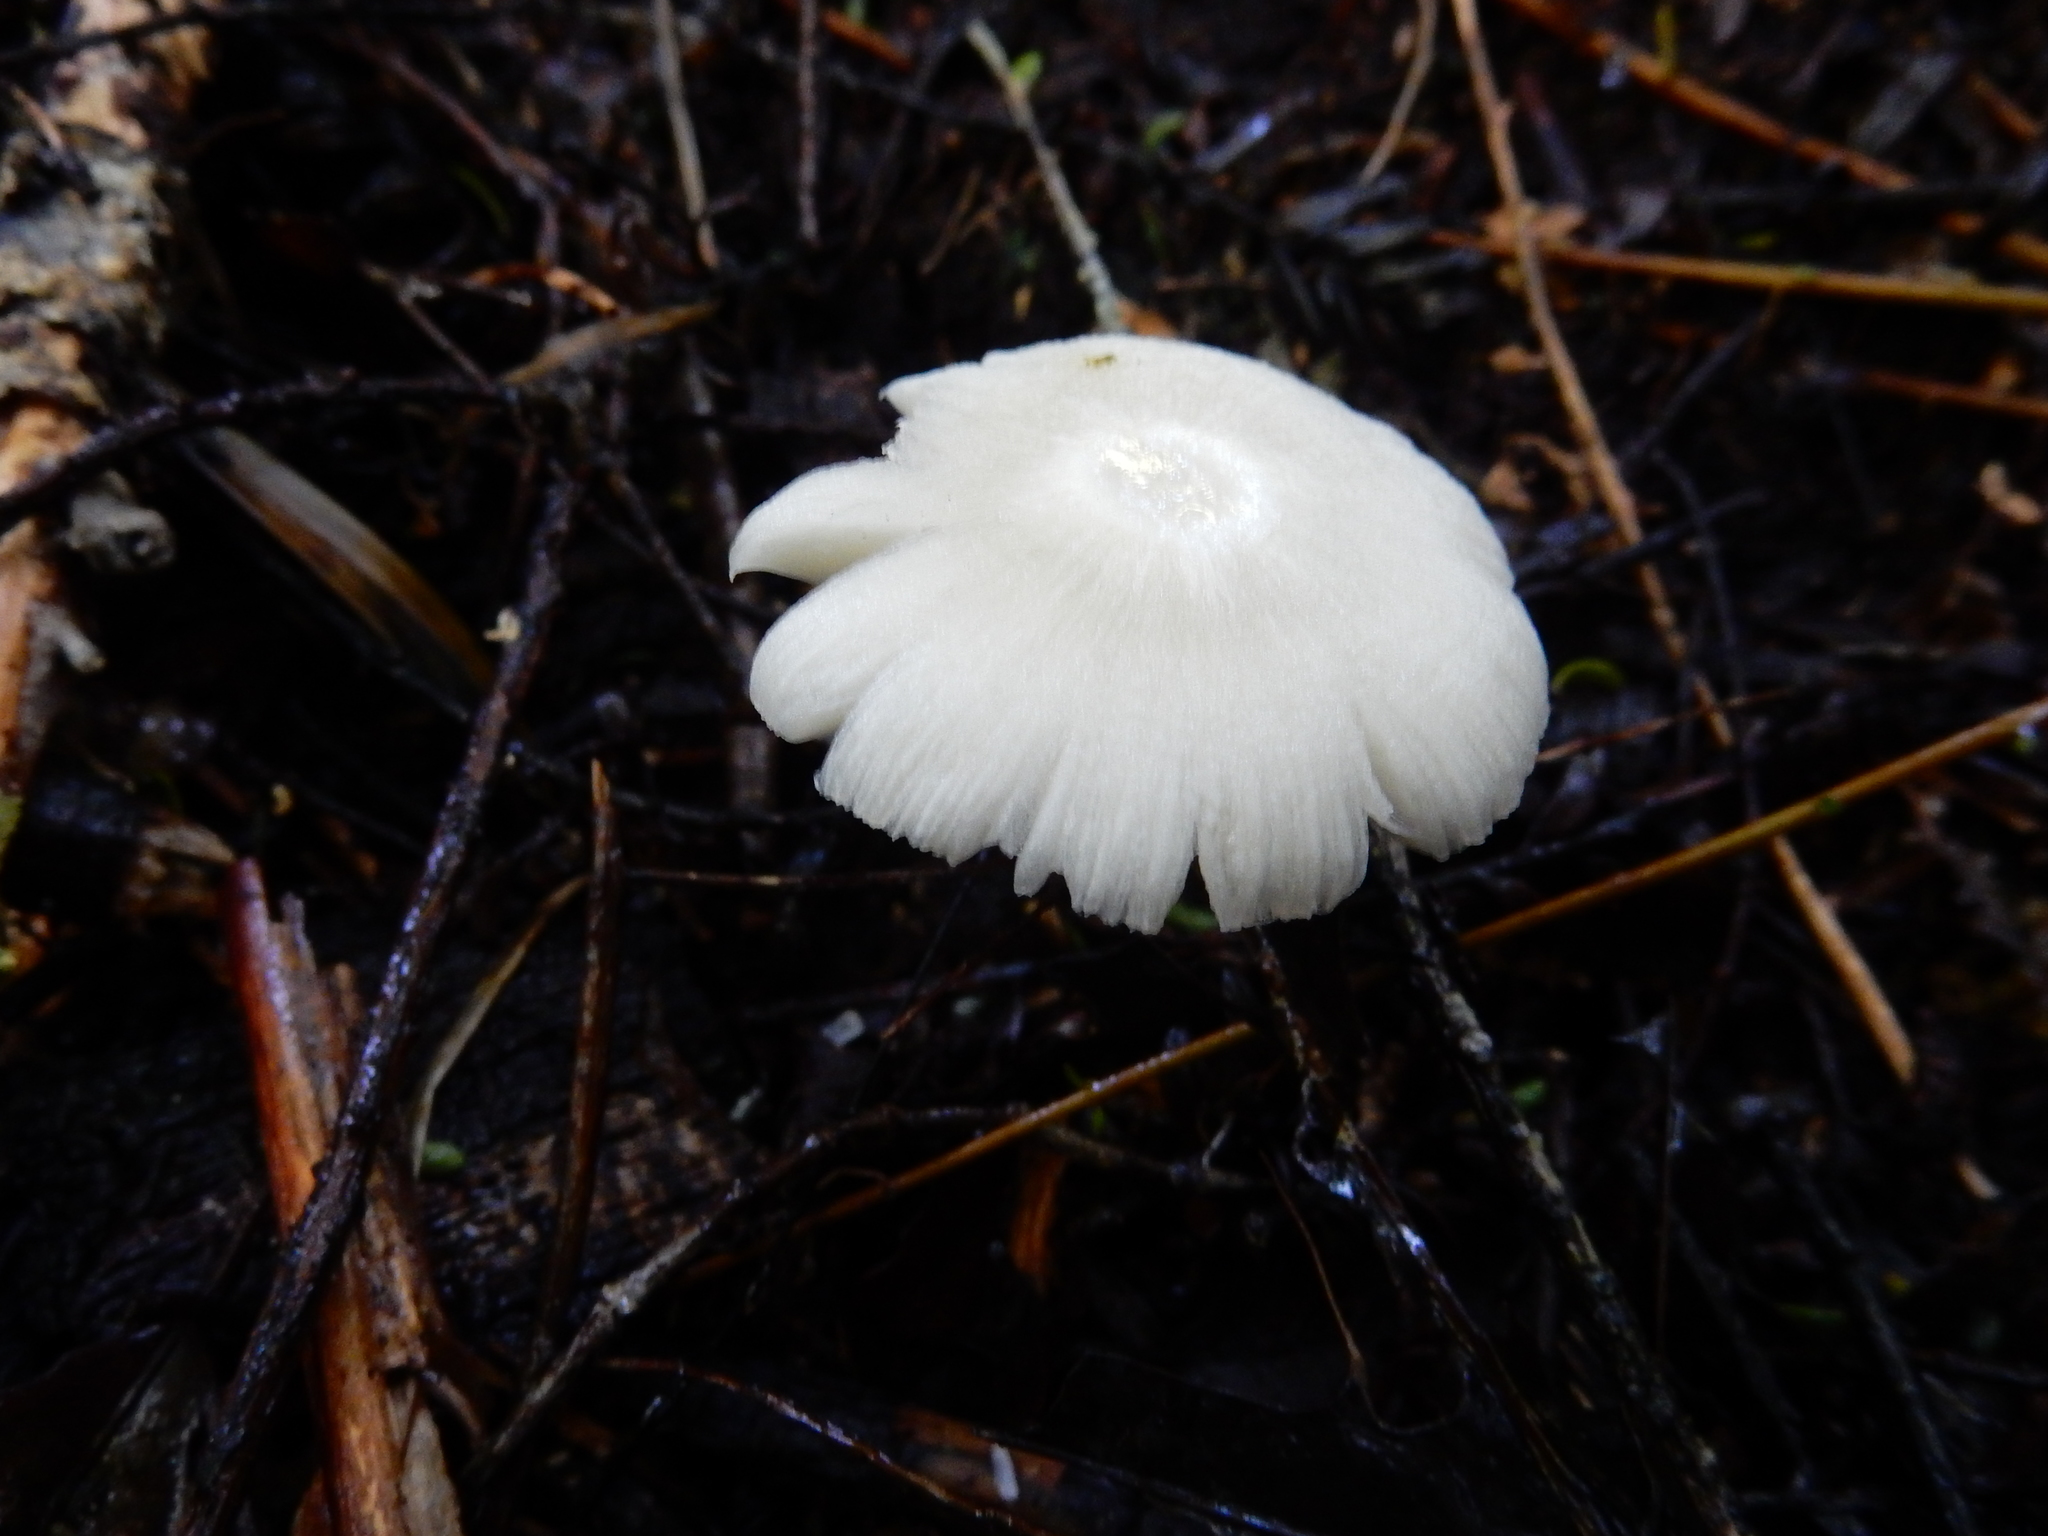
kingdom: Fungi
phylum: Basidiomycota
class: Agaricomycetes
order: Agaricales
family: Hygrophoraceae
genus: Humidicutis
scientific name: Humidicutis mavis
